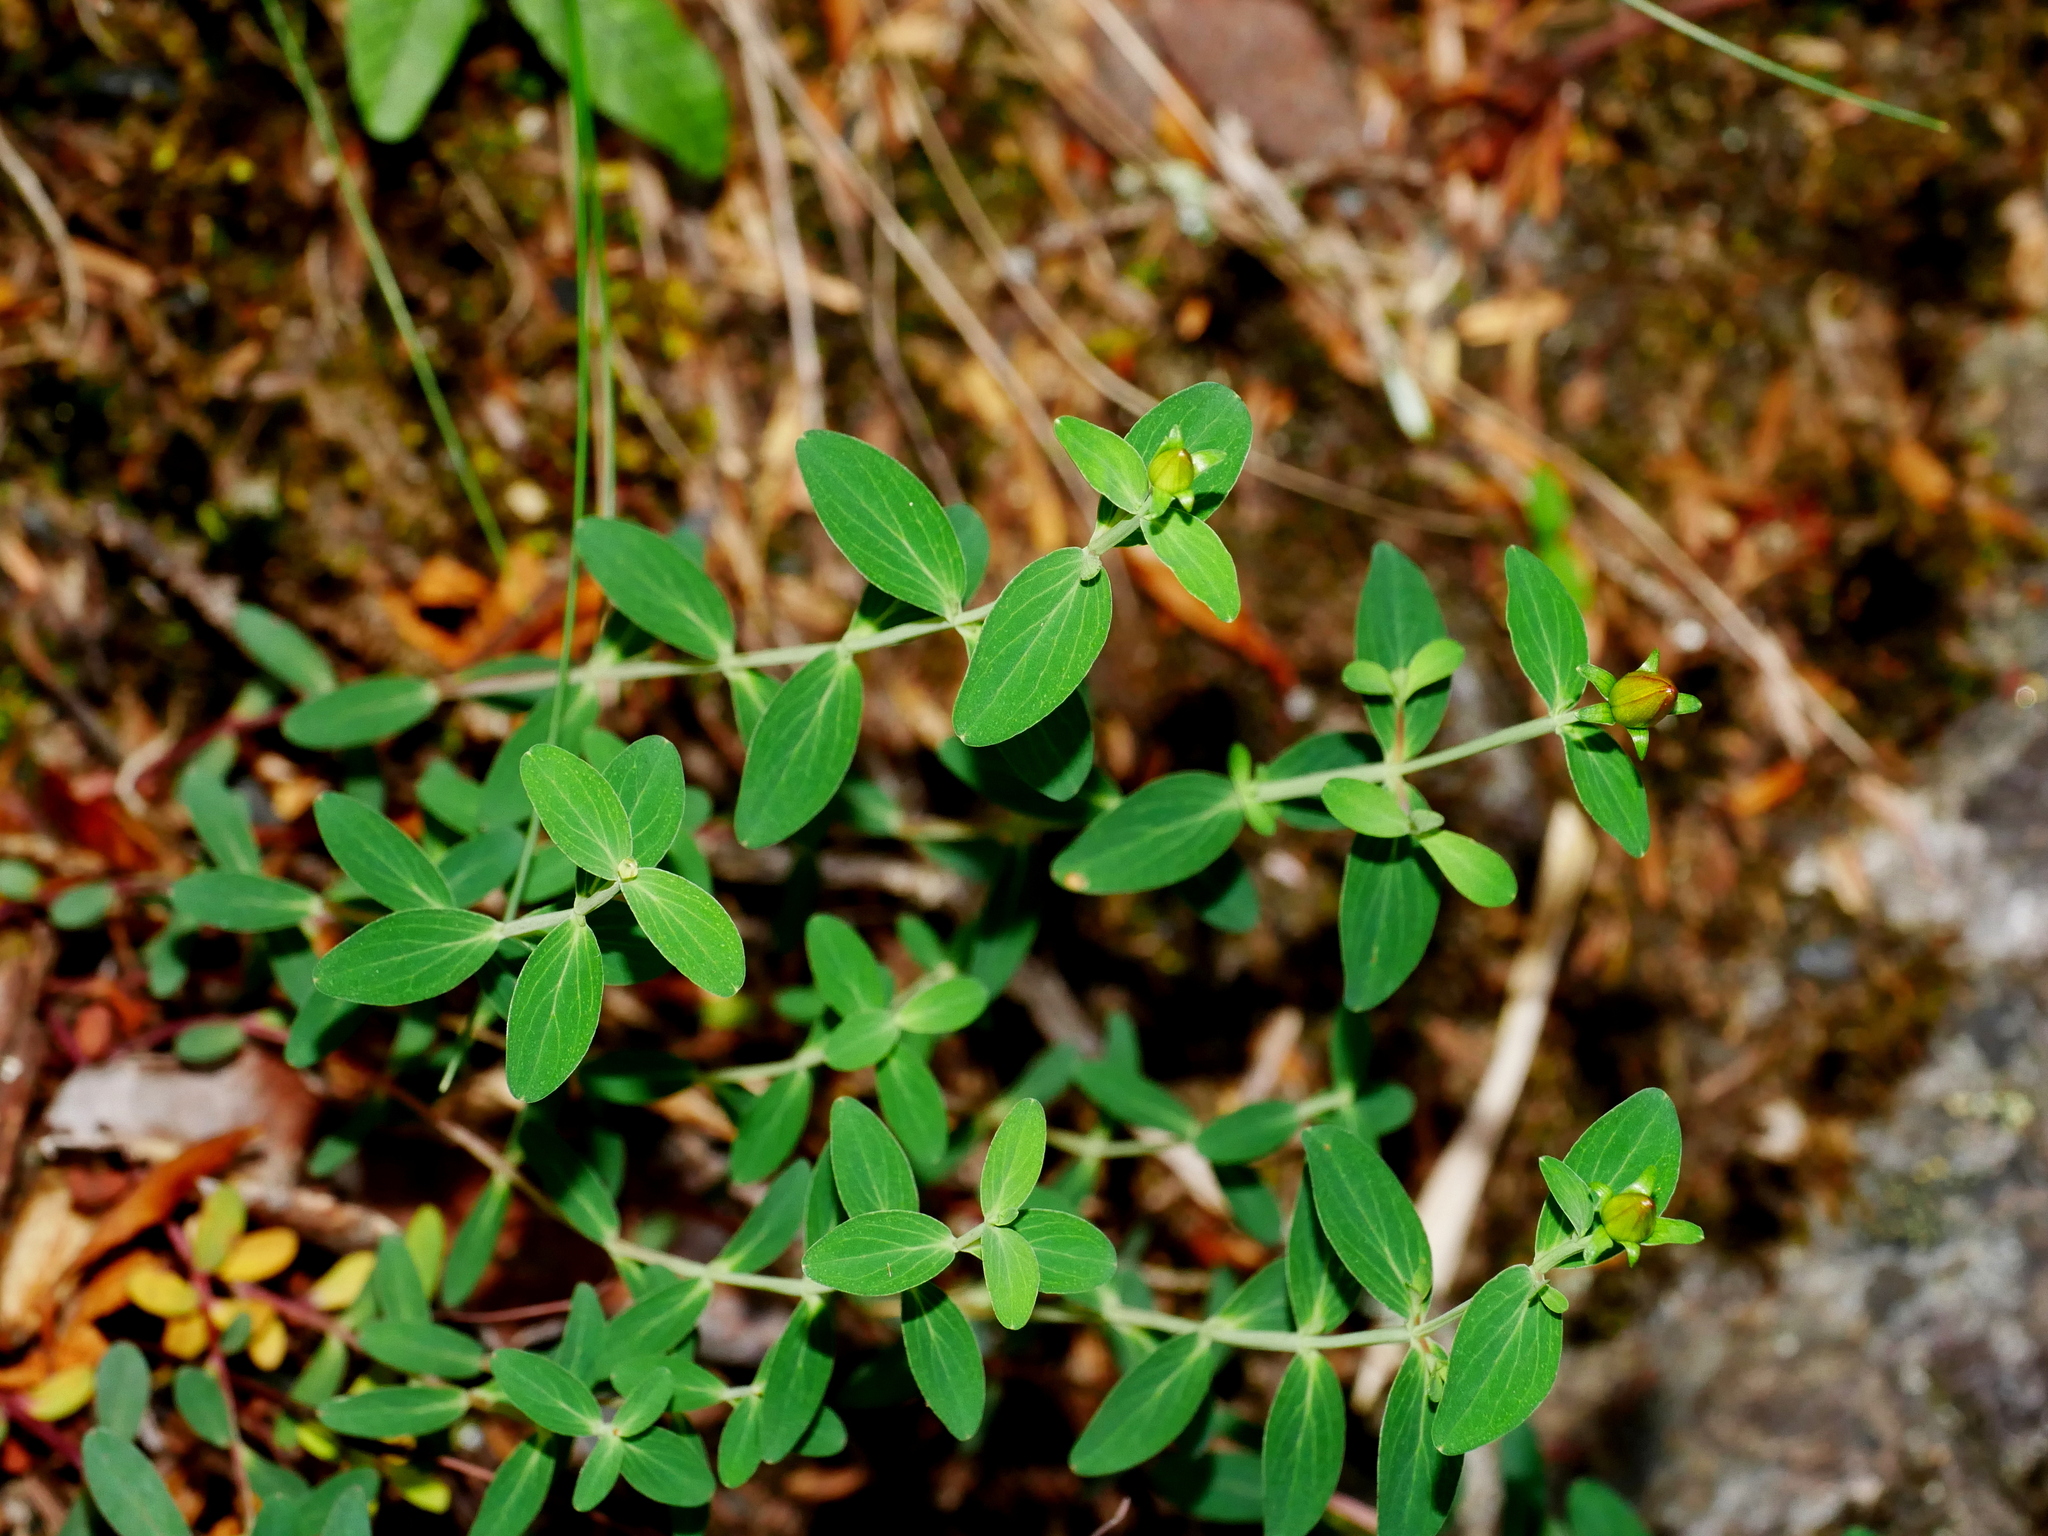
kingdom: Plantae
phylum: Tracheophyta
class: Magnoliopsida
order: Malpighiales
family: Hypericaceae
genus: Hypericum
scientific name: Hypericum nagasawae
